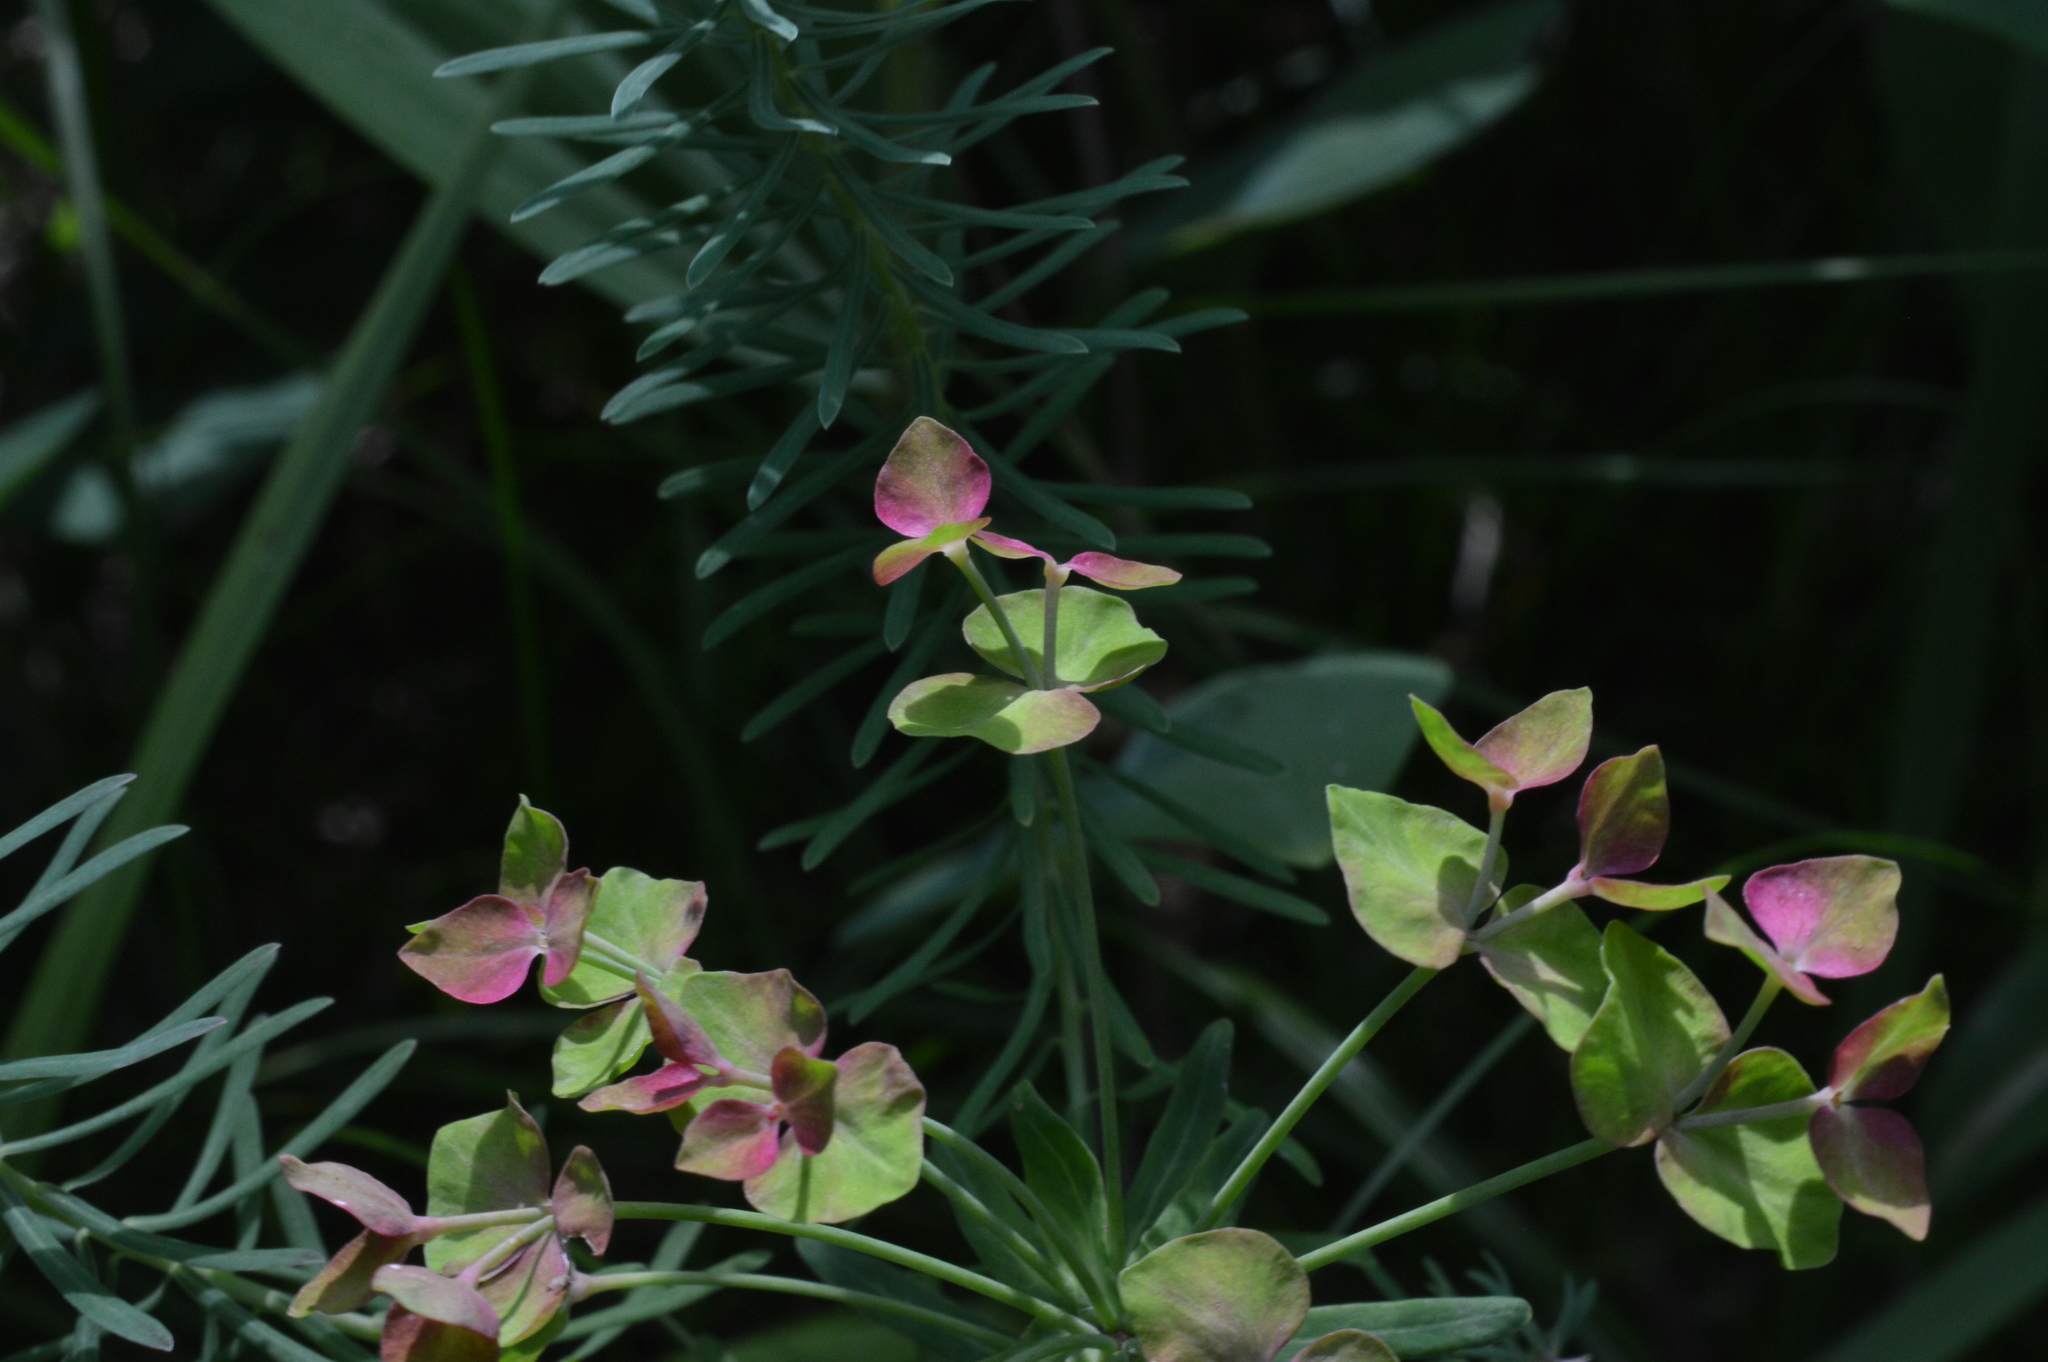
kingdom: Plantae
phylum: Tracheophyta
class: Magnoliopsida
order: Malpighiales
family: Euphorbiaceae
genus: Euphorbia
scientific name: Euphorbia cyparissias
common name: Cypress spurge
